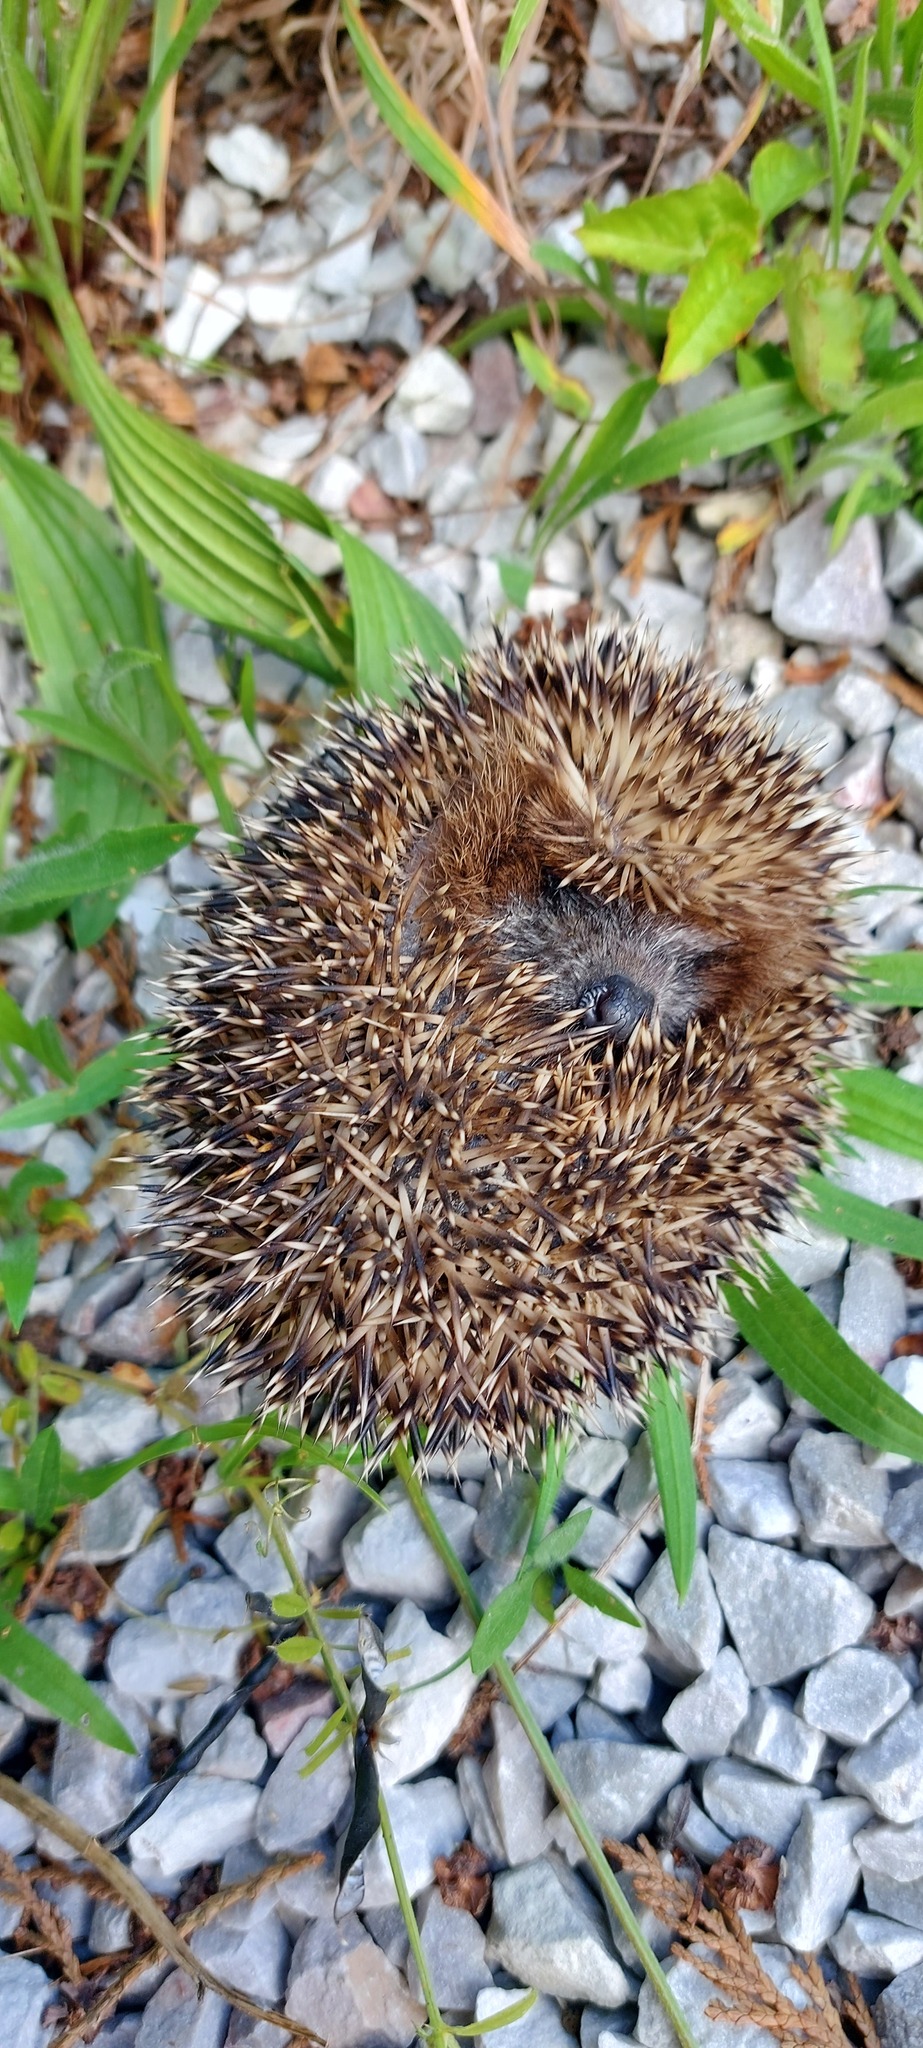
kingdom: Animalia
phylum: Chordata
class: Mammalia
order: Erinaceomorpha
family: Erinaceidae
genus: Erinaceus
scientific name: Erinaceus europaeus
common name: West european hedgehog
